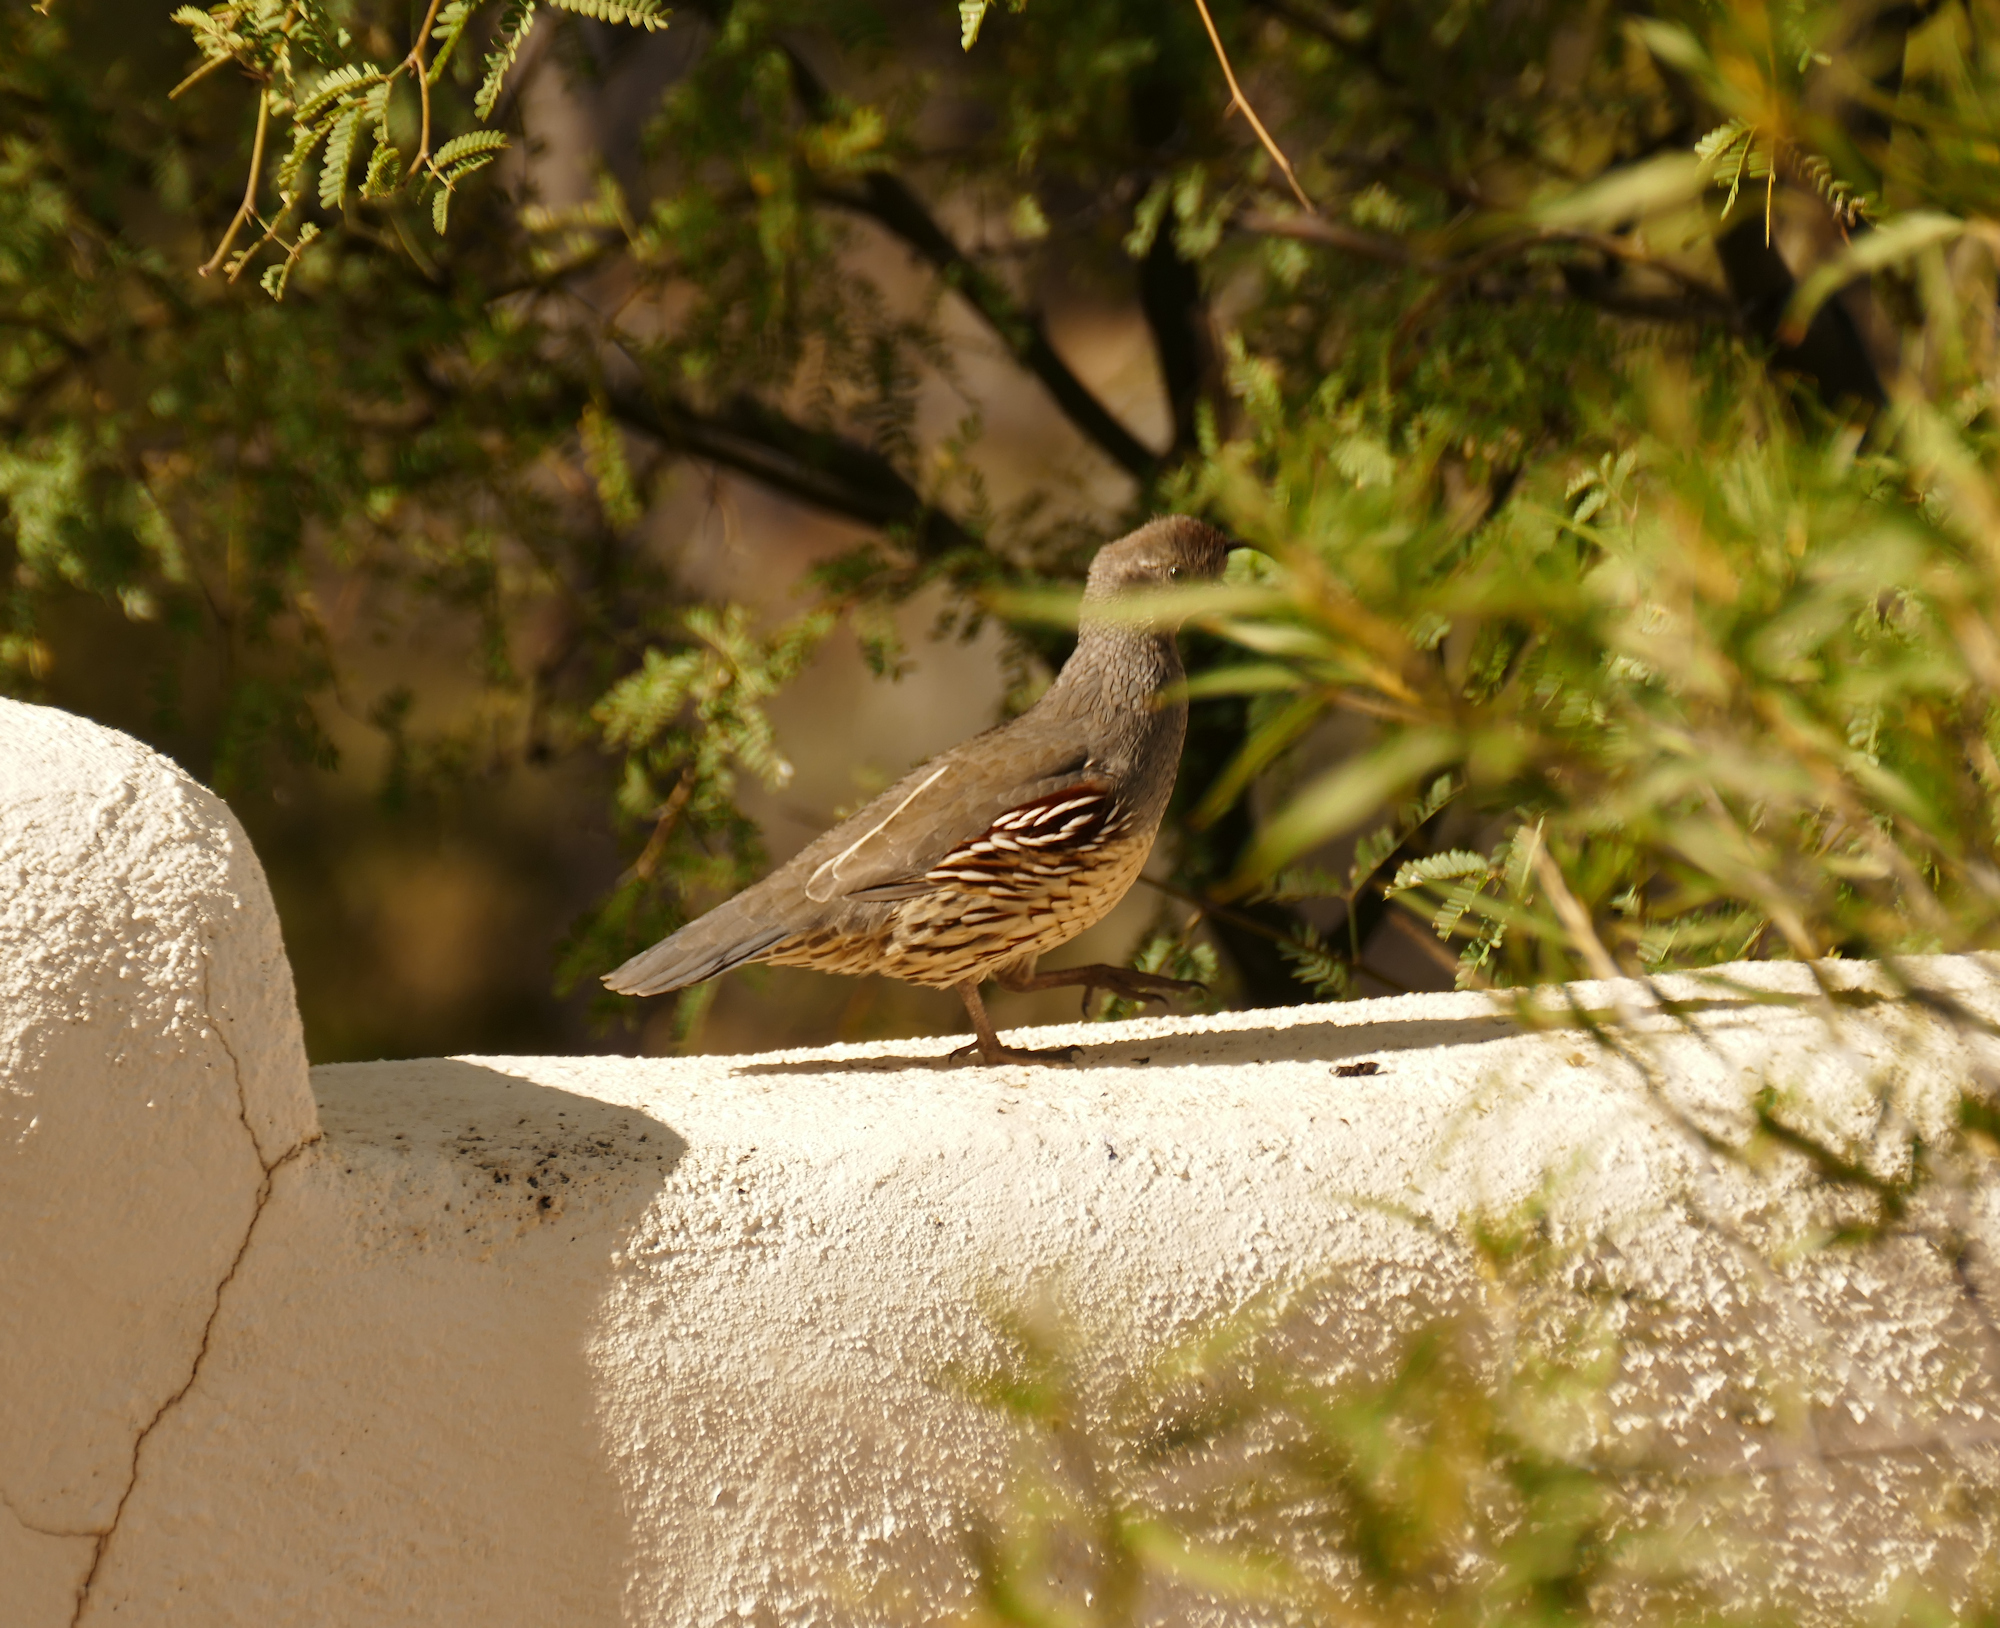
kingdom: Animalia
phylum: Chordata
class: Aves
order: Galliformes
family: Odontophoridae
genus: Callipepla
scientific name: Callipepla gambelii
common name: Gambel's quail
